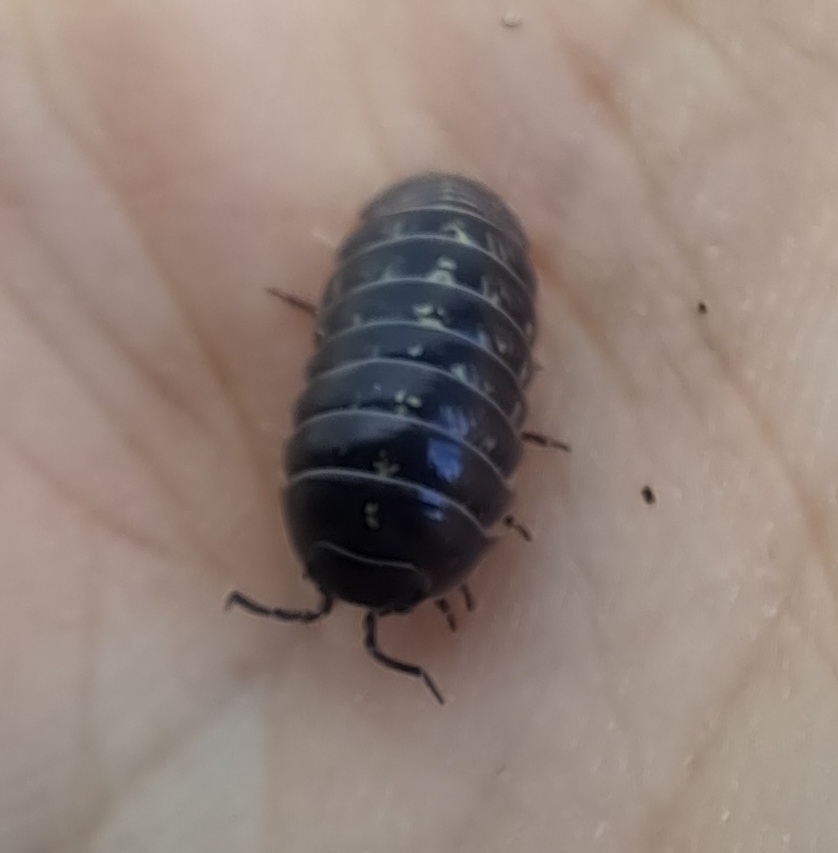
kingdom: Animalia
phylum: Arthropoda
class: Malacostraca
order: Isopoda
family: Armadillidiidae
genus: Armadillidium
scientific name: Armadillidium vulgare
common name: Common pill woodlouse
